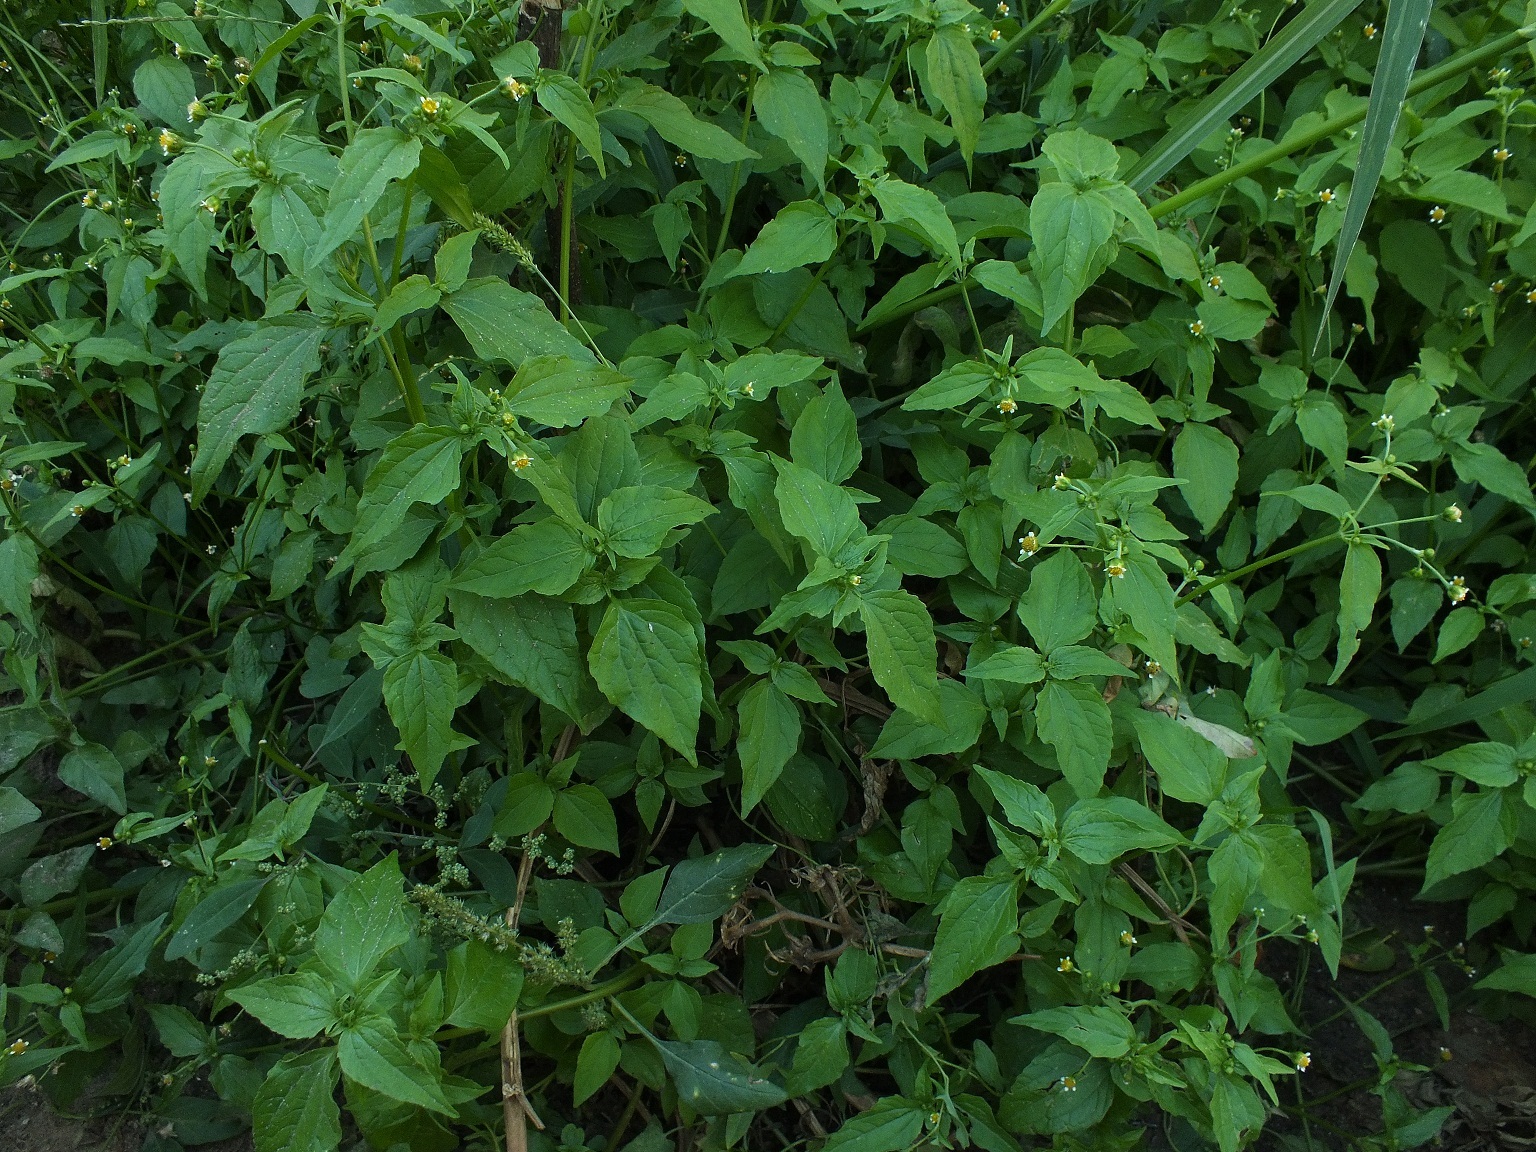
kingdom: Plantae
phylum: Tracheophyta
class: Magnoliopsida
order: Asterales
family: Asteraceae
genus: Galinsoga
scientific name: Galinsoga parviflora
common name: Gallant soldier
